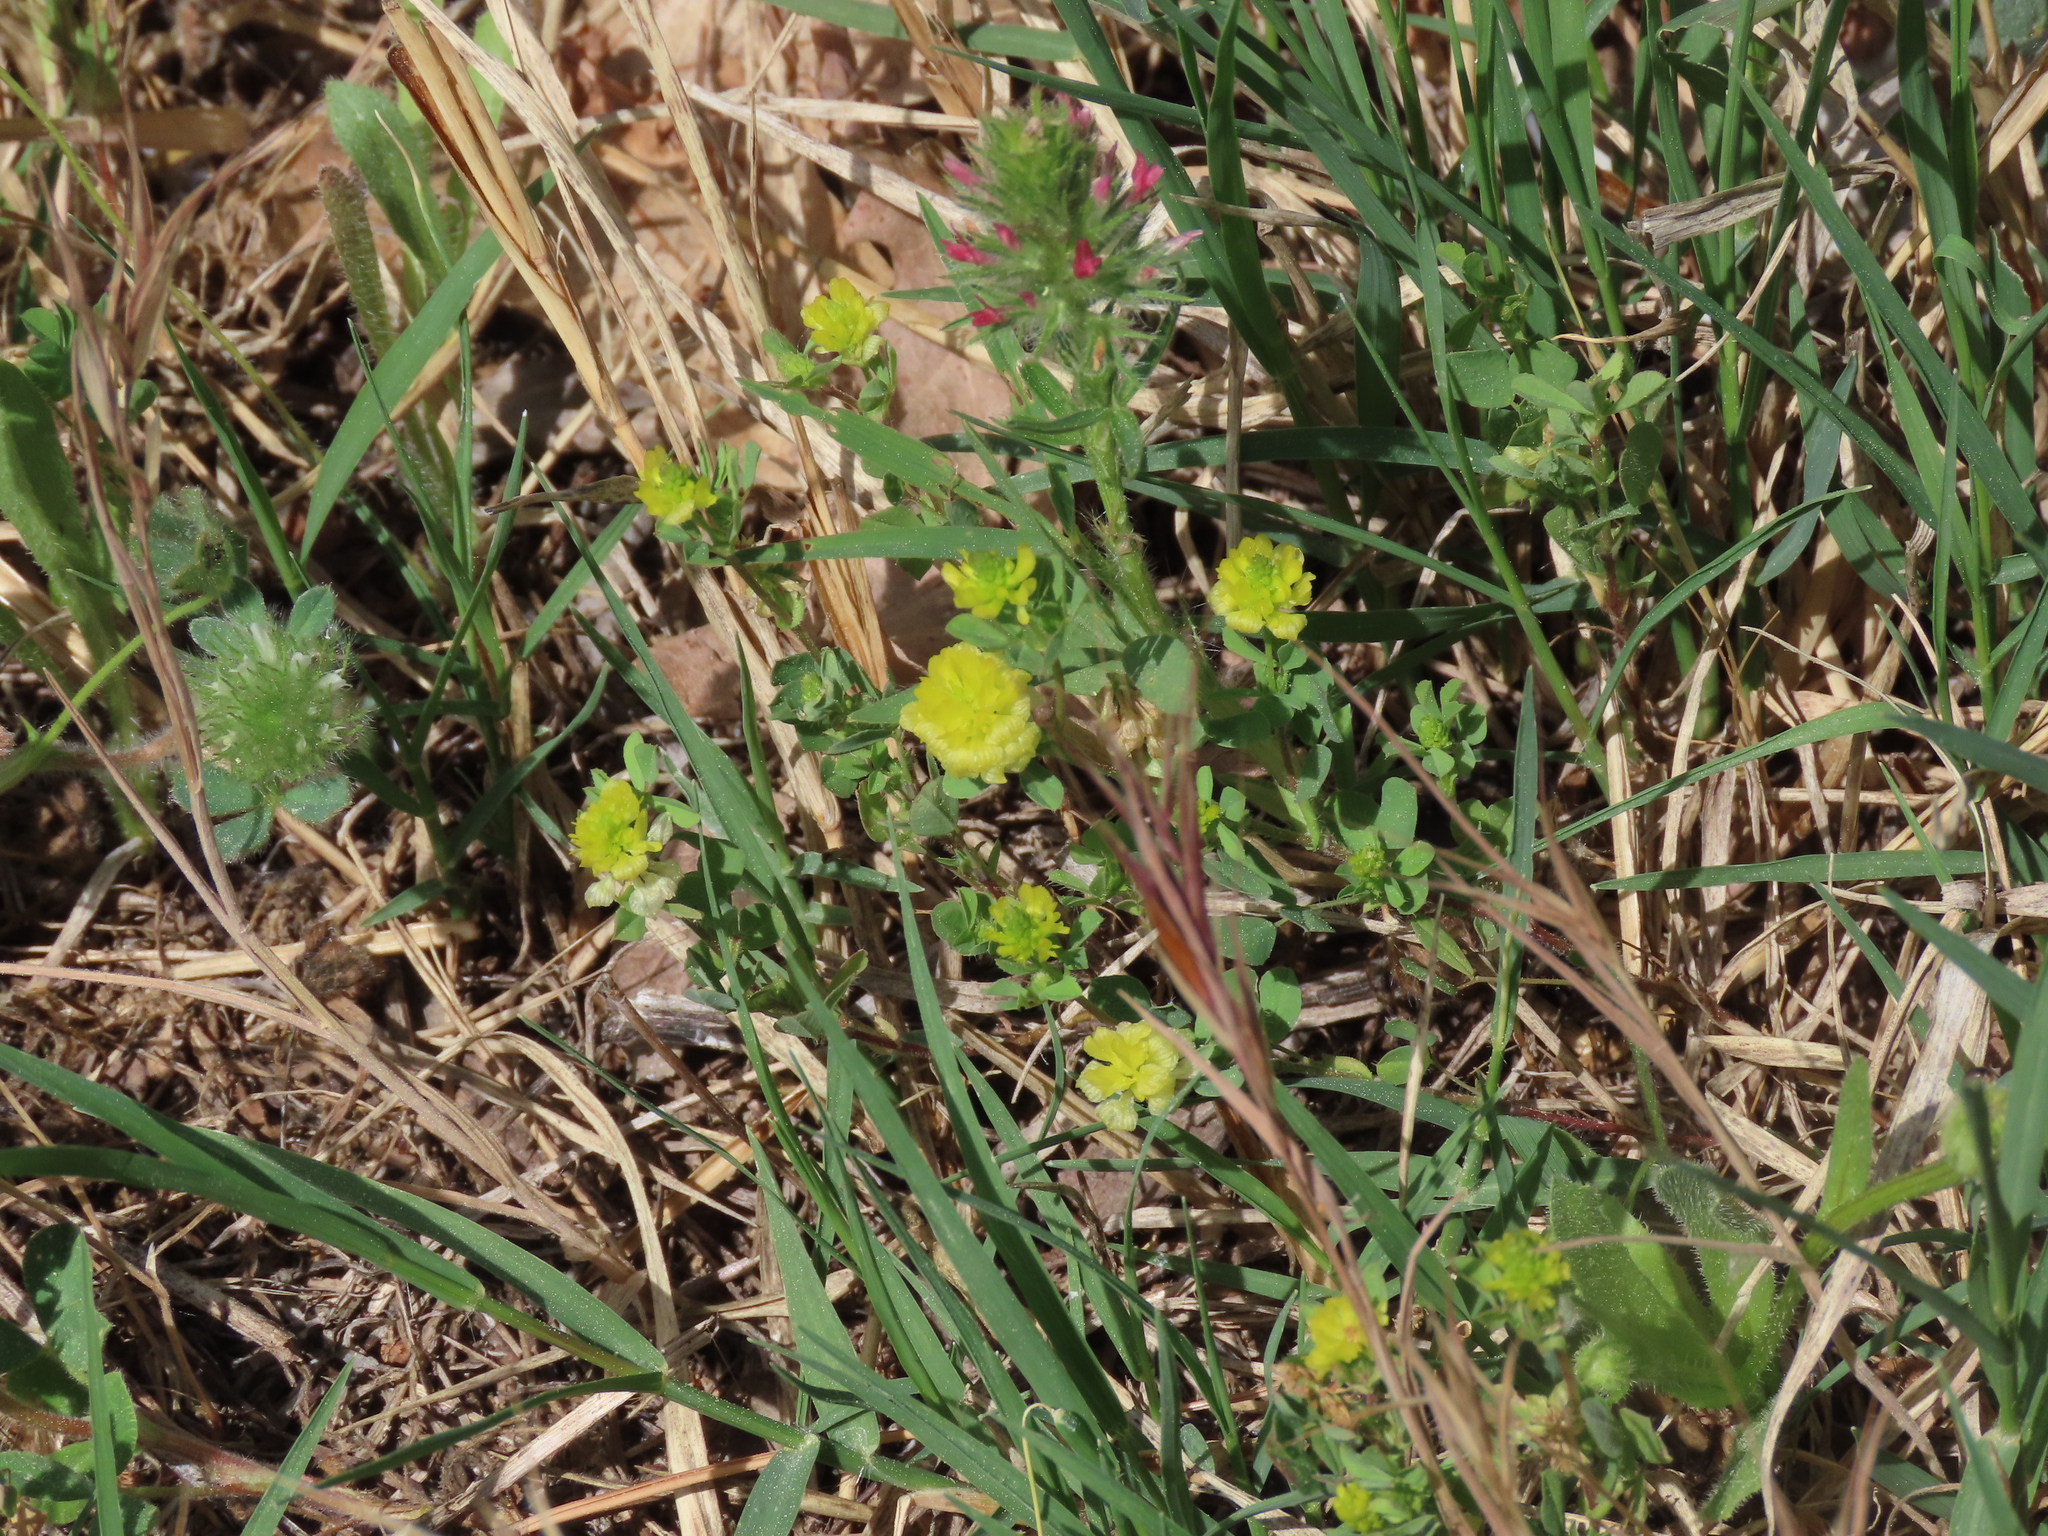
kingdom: Plantae
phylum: Tracheophyta
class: Magnoliopsida
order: Fabales
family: Fabaceae
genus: Trifolium
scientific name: Trifolium campestre
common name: Field clover
